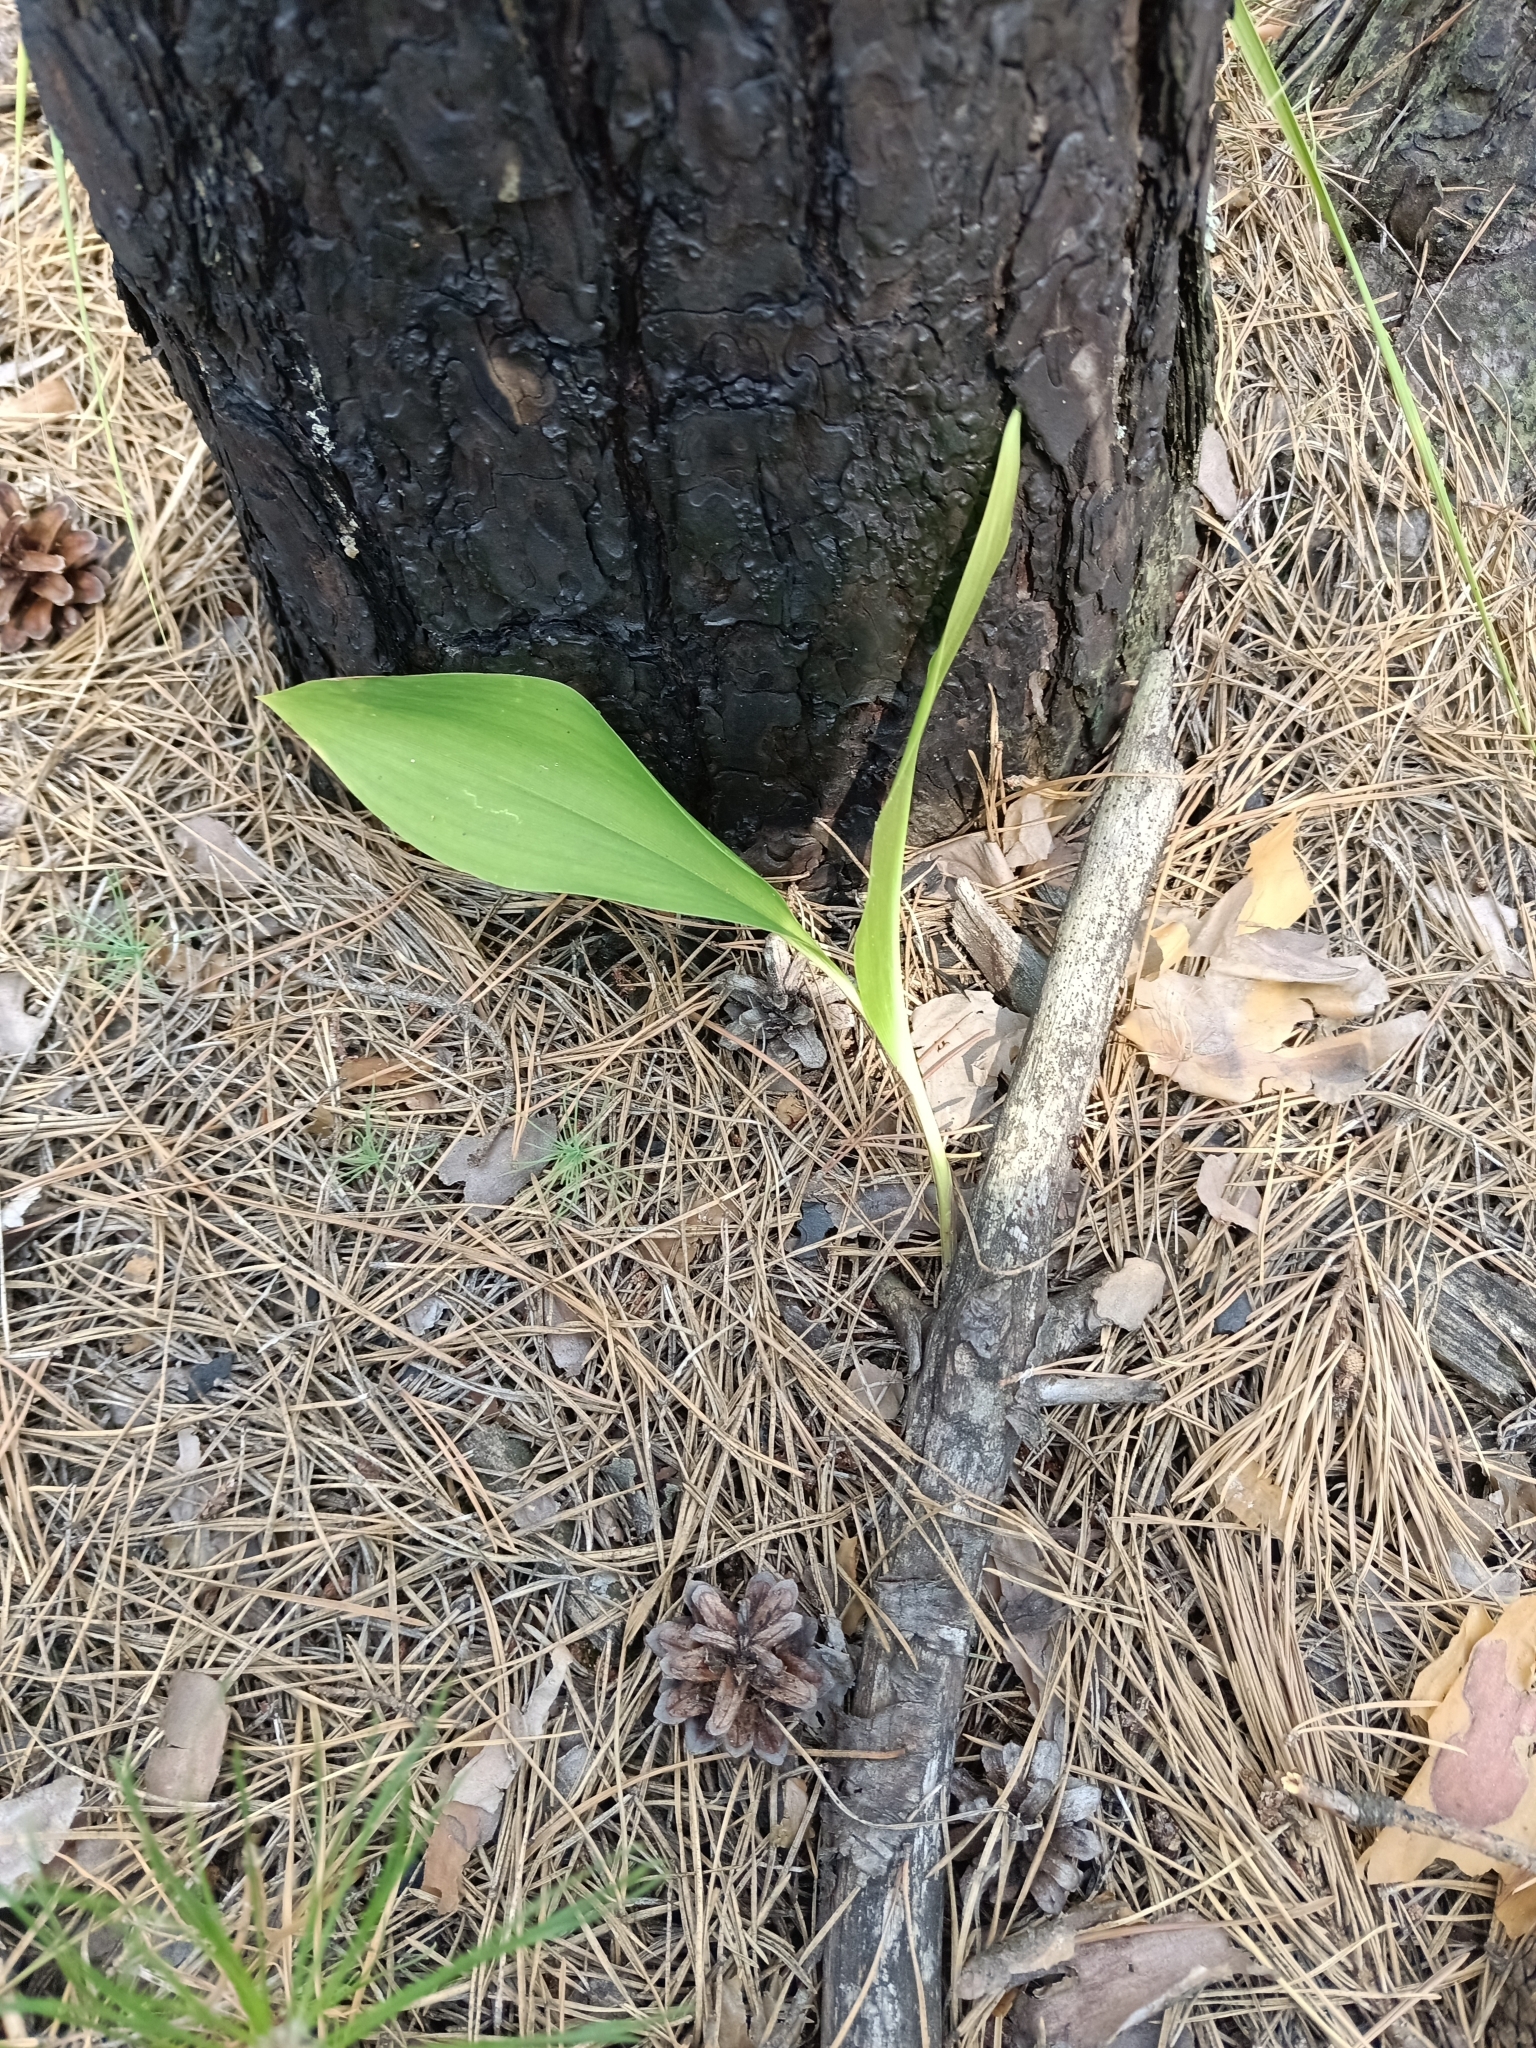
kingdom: Plantae
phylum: Tracheophyta
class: Liliopsida
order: Asparagales
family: Asparagaceae
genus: Convallaria
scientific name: Convallaria majalis
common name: Lily-of-the-valley
